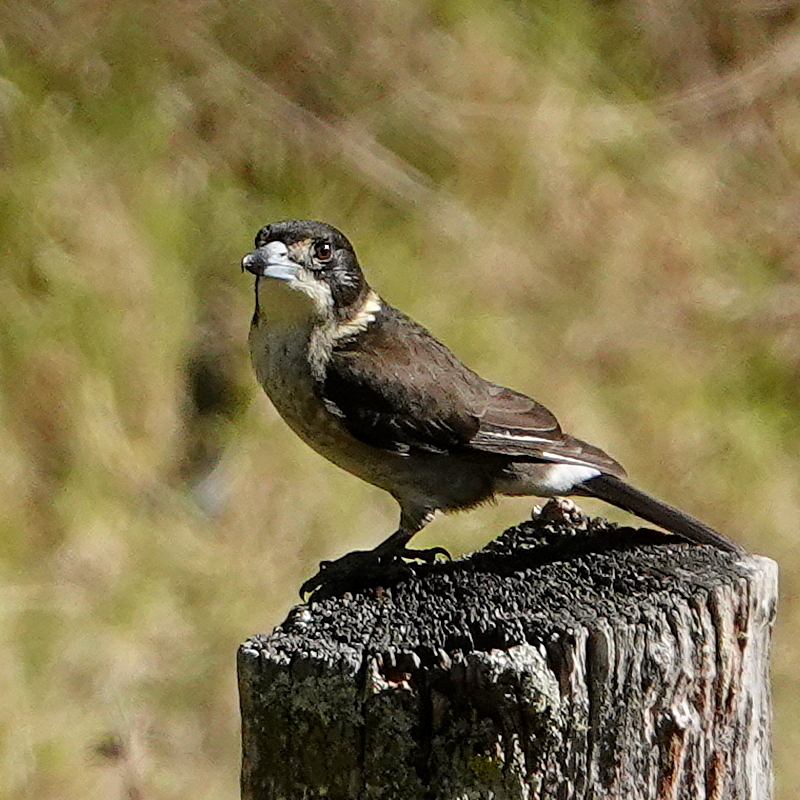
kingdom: Animalia
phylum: Chordata
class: Aves
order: Passeriformes
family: Cracticidae
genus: Cracticus
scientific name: Cracticus torquatus
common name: Grey butcherbird
